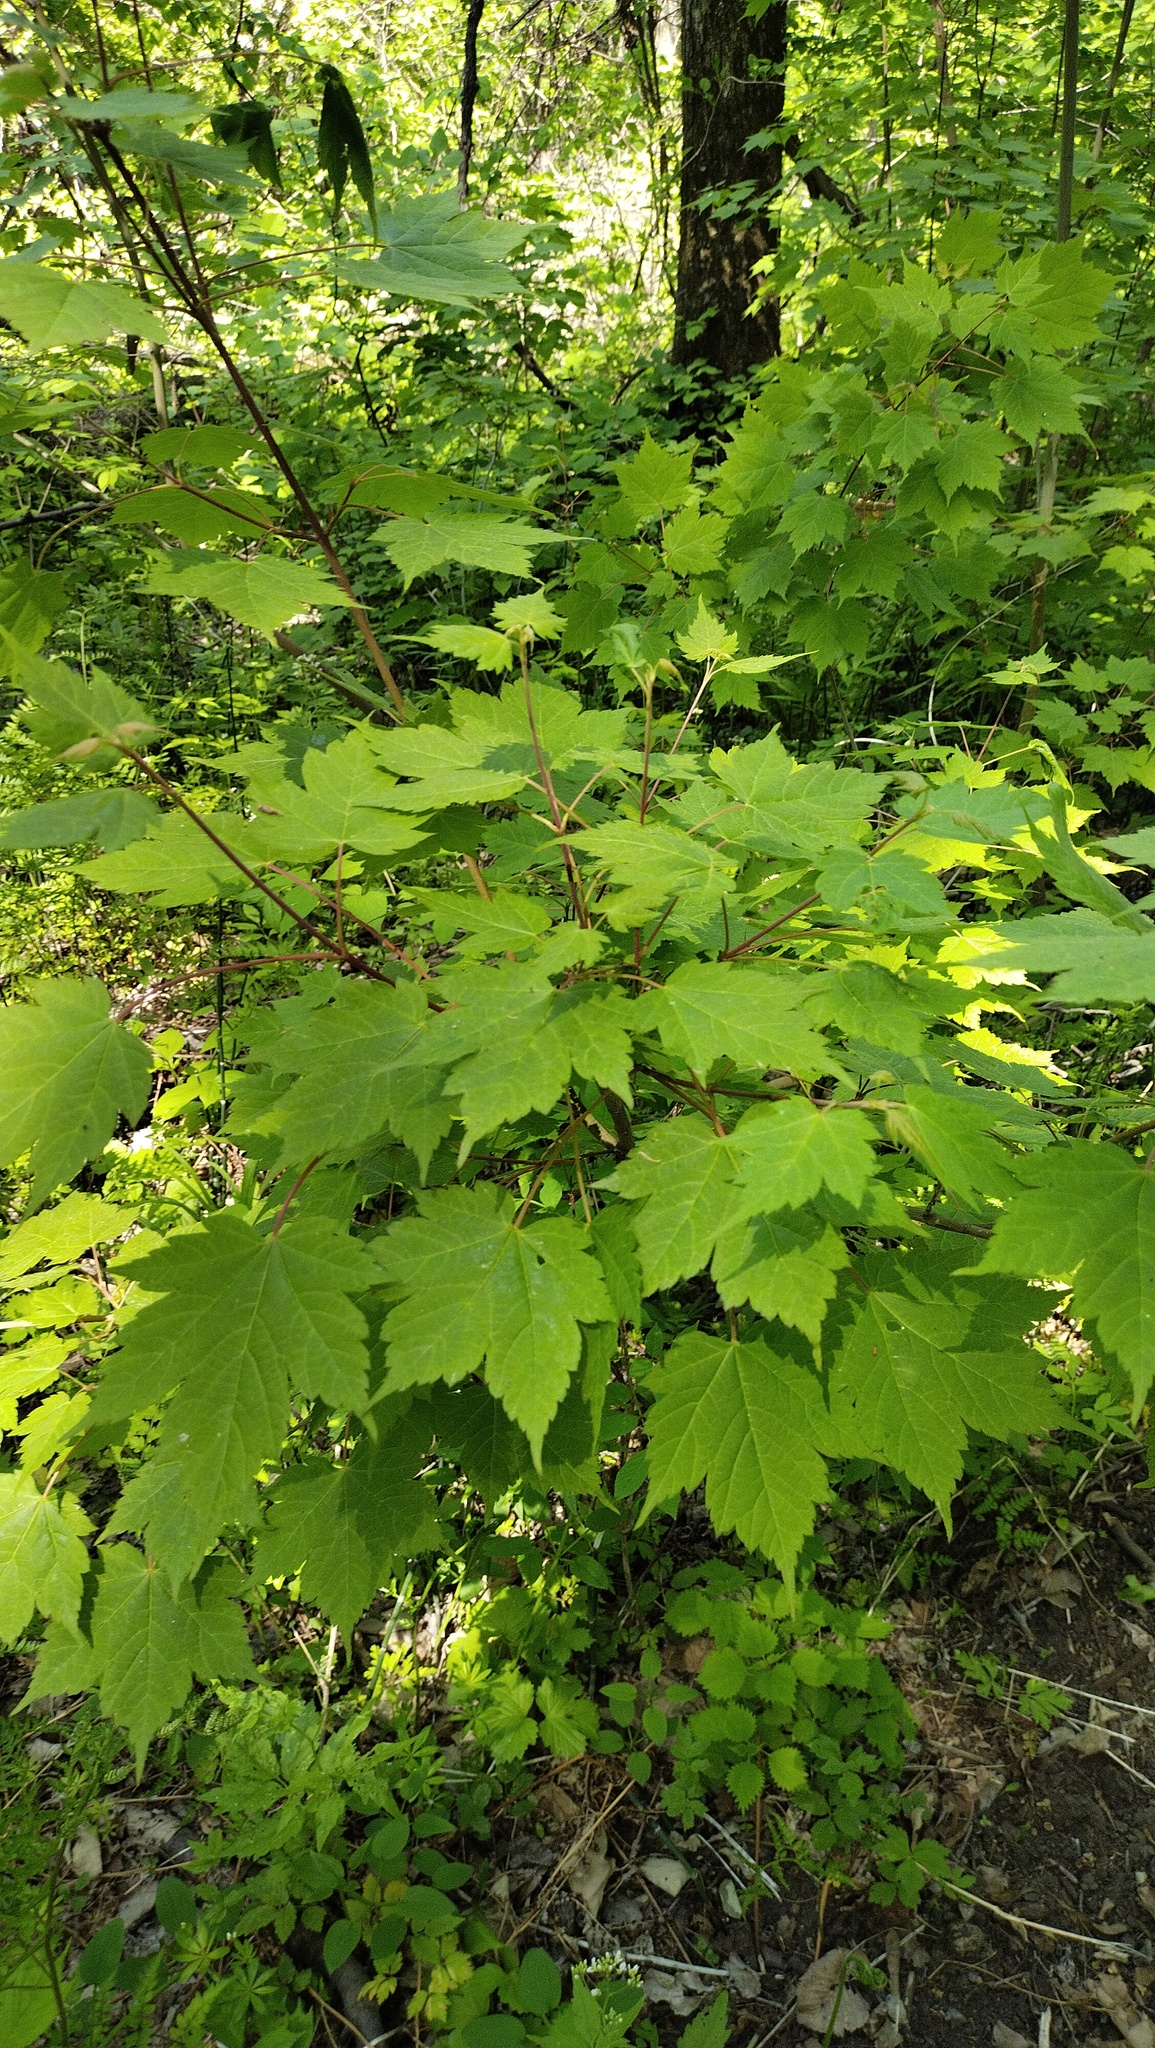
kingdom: Plantae
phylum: Tracheophyta
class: Magnoliopsida
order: Sapindales
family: Sapindaceae
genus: Acer
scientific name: Acer barbinerve
